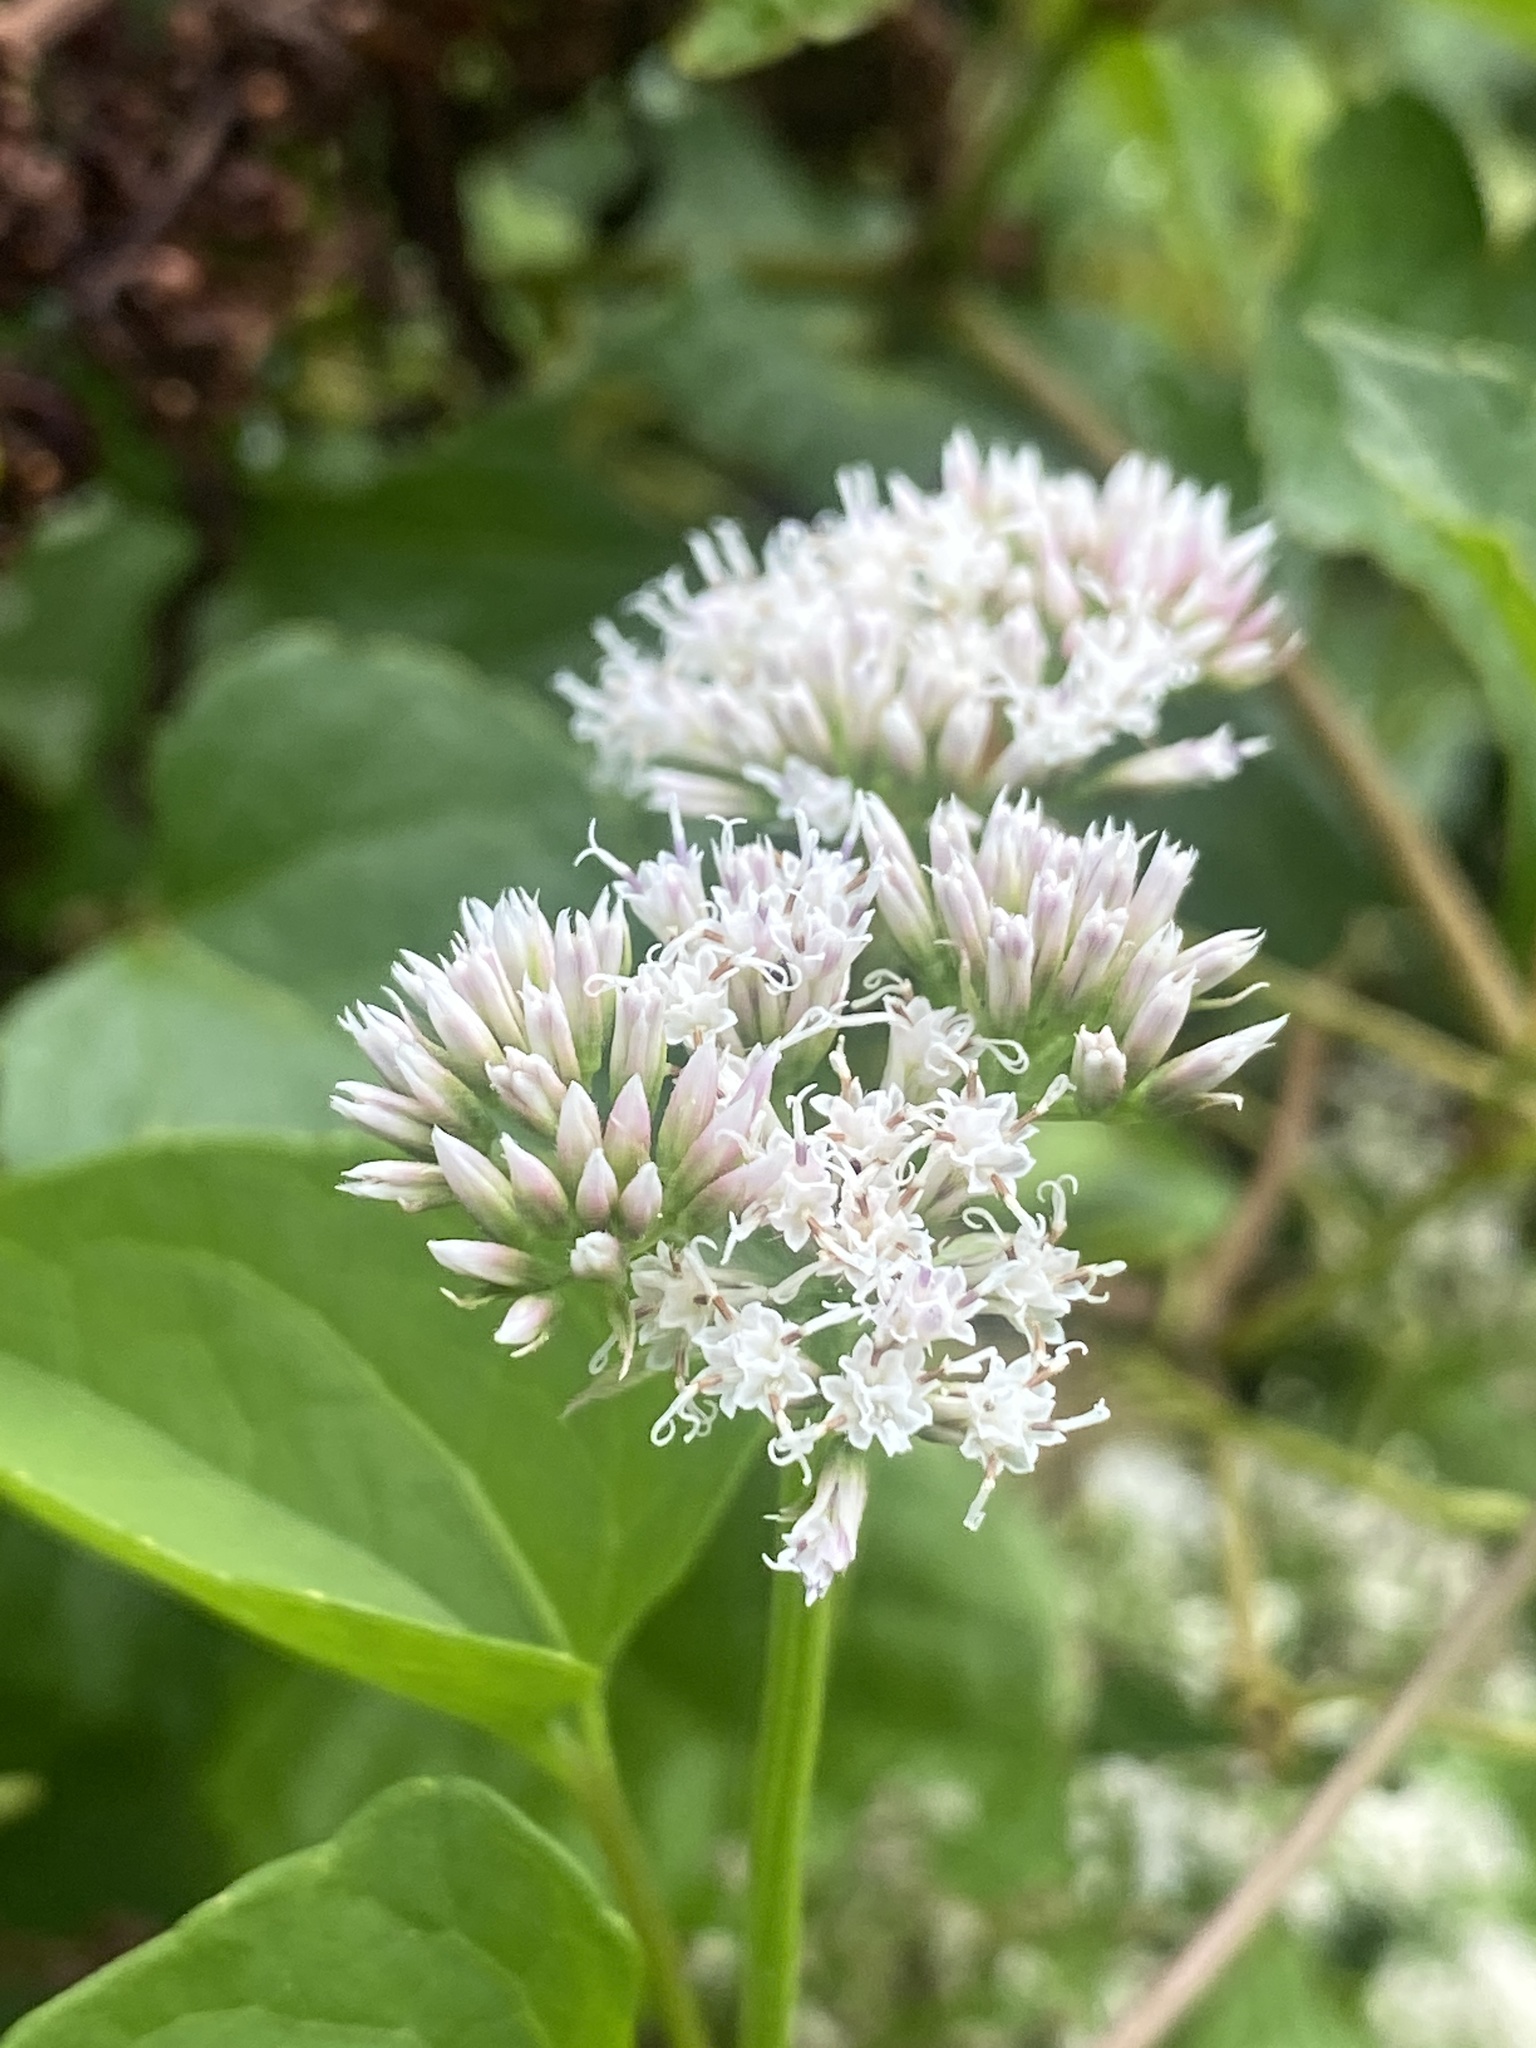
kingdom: Plantae
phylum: Tracheophyta
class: Magnoliopsida
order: Asterales
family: Asteraceae
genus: Mikania
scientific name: Mikania scandens
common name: Climbing hempvine
